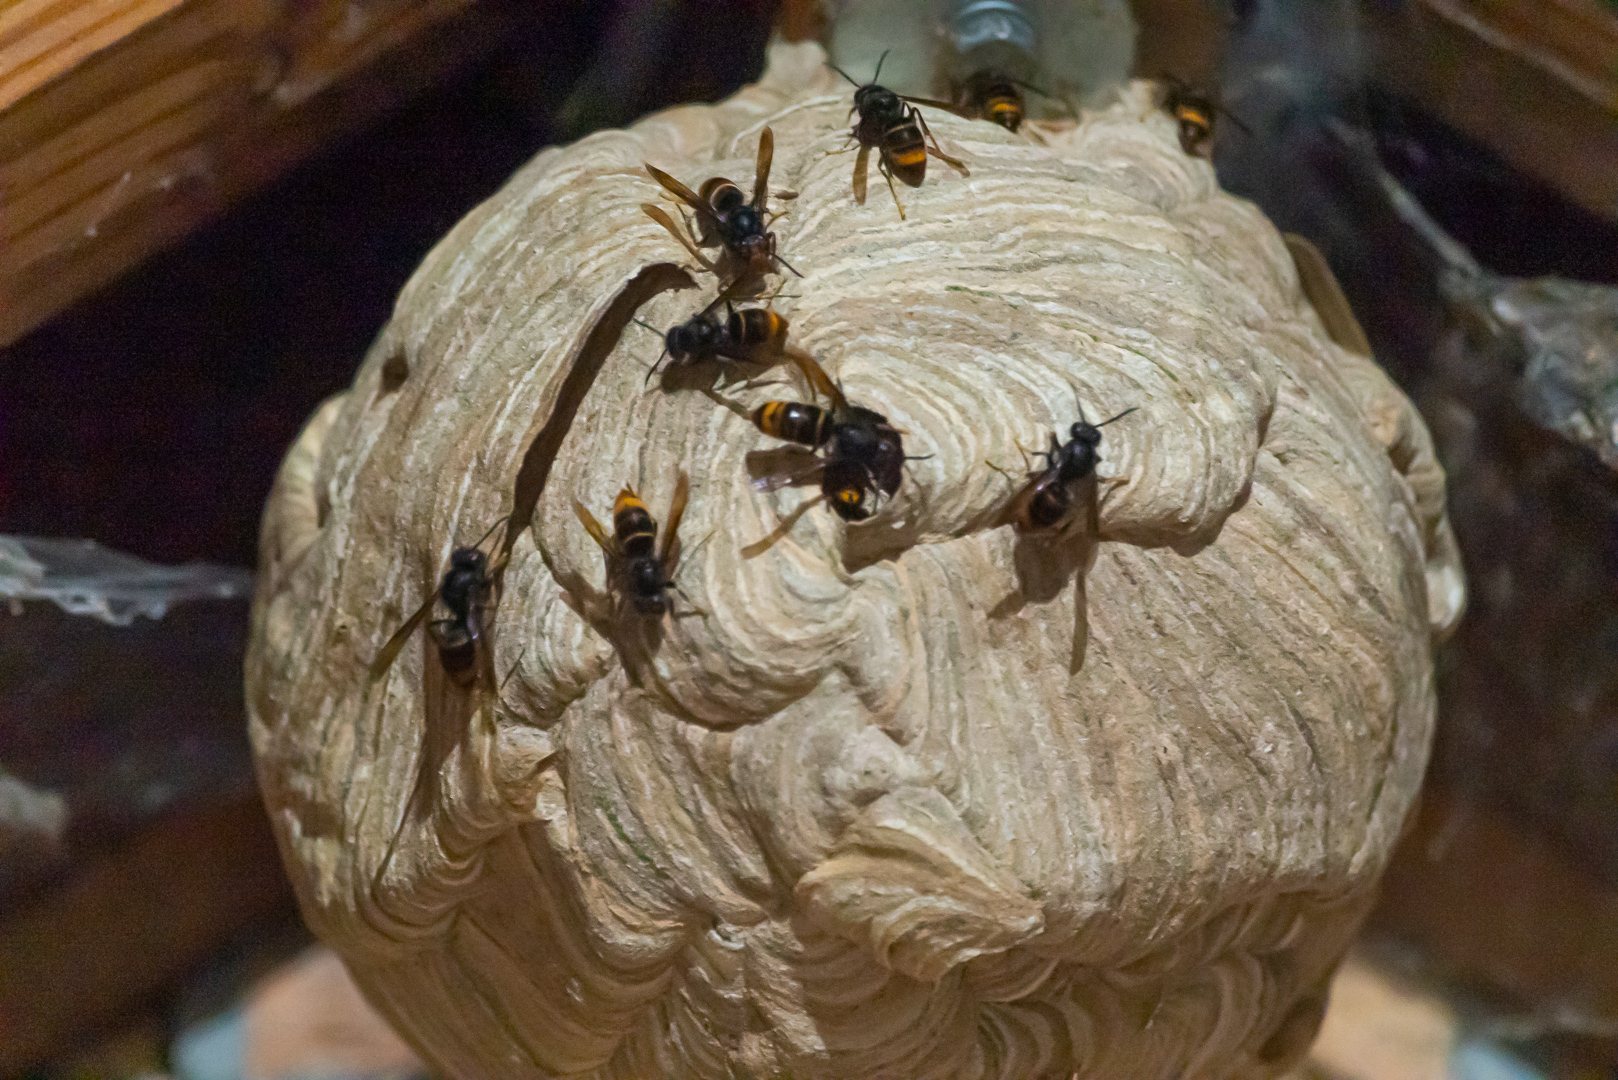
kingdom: Animalia
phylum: Arthropoda
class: Insecta
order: Hymenoptera
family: Vespidae
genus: Vespa
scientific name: Vespa velutina
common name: Asian hornet
